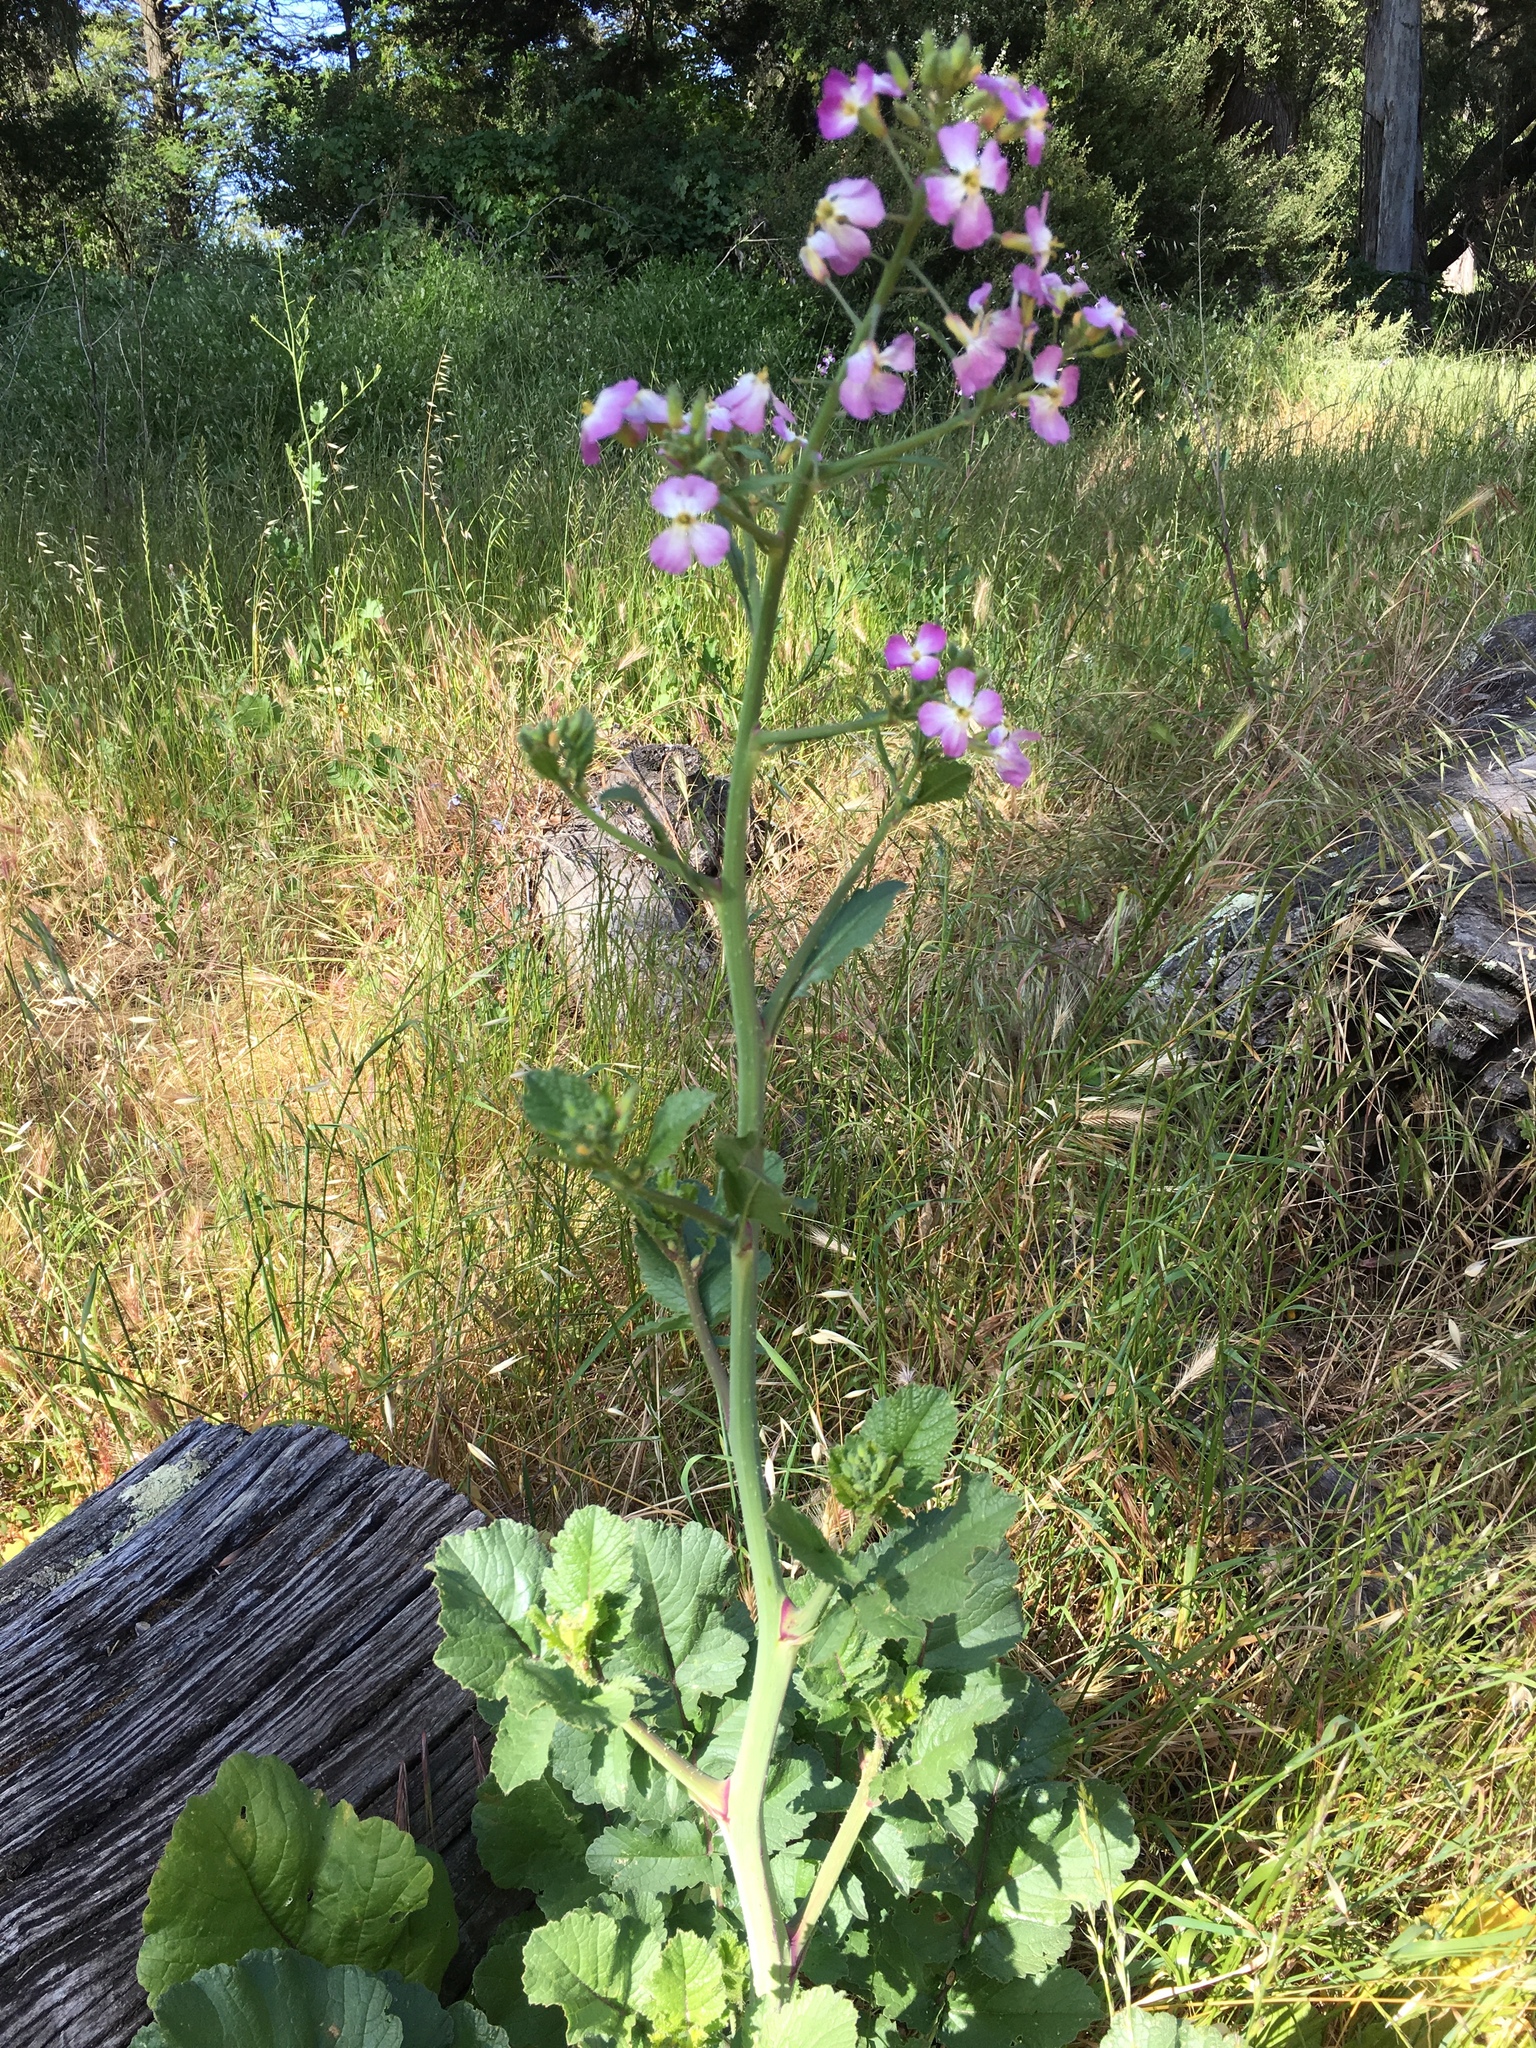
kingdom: Plantae
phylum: Tracheophyta
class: Magnoliopsida
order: Brassicales
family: Brassicaceae
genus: Raphanus
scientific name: Raphanus sativus
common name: Cultivated radish
